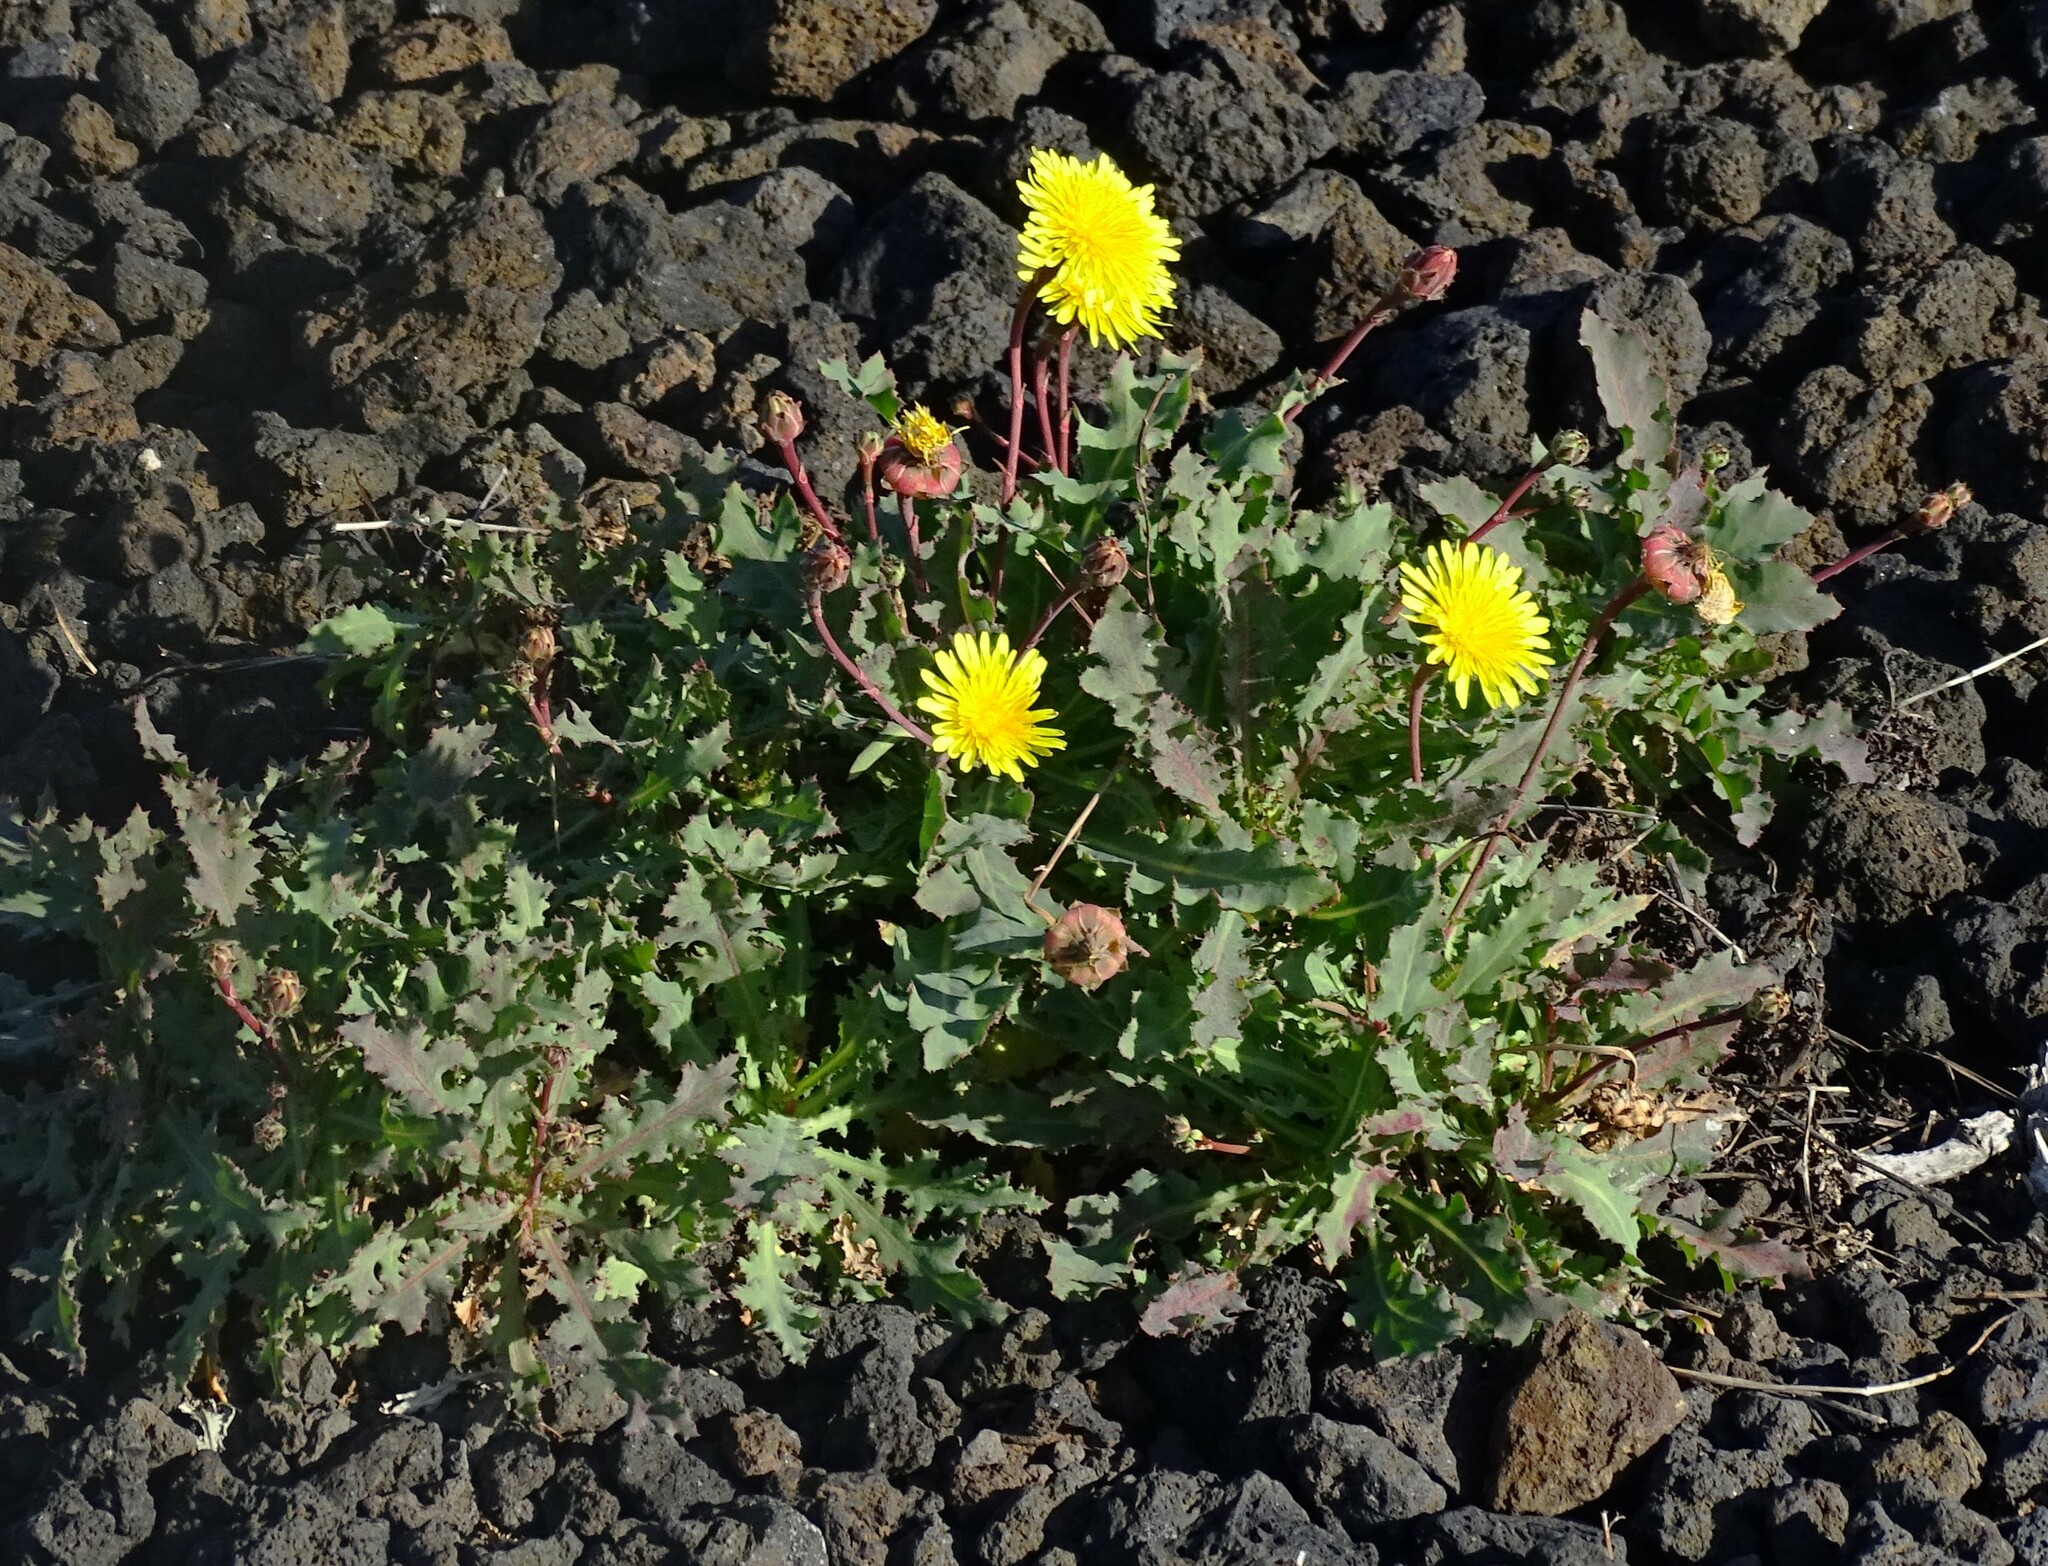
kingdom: Plantae
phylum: Tracheophyta
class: Magnoliopsida
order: Asterales
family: Asteraceae
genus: Reichardia
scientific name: Reichardia ligulata
